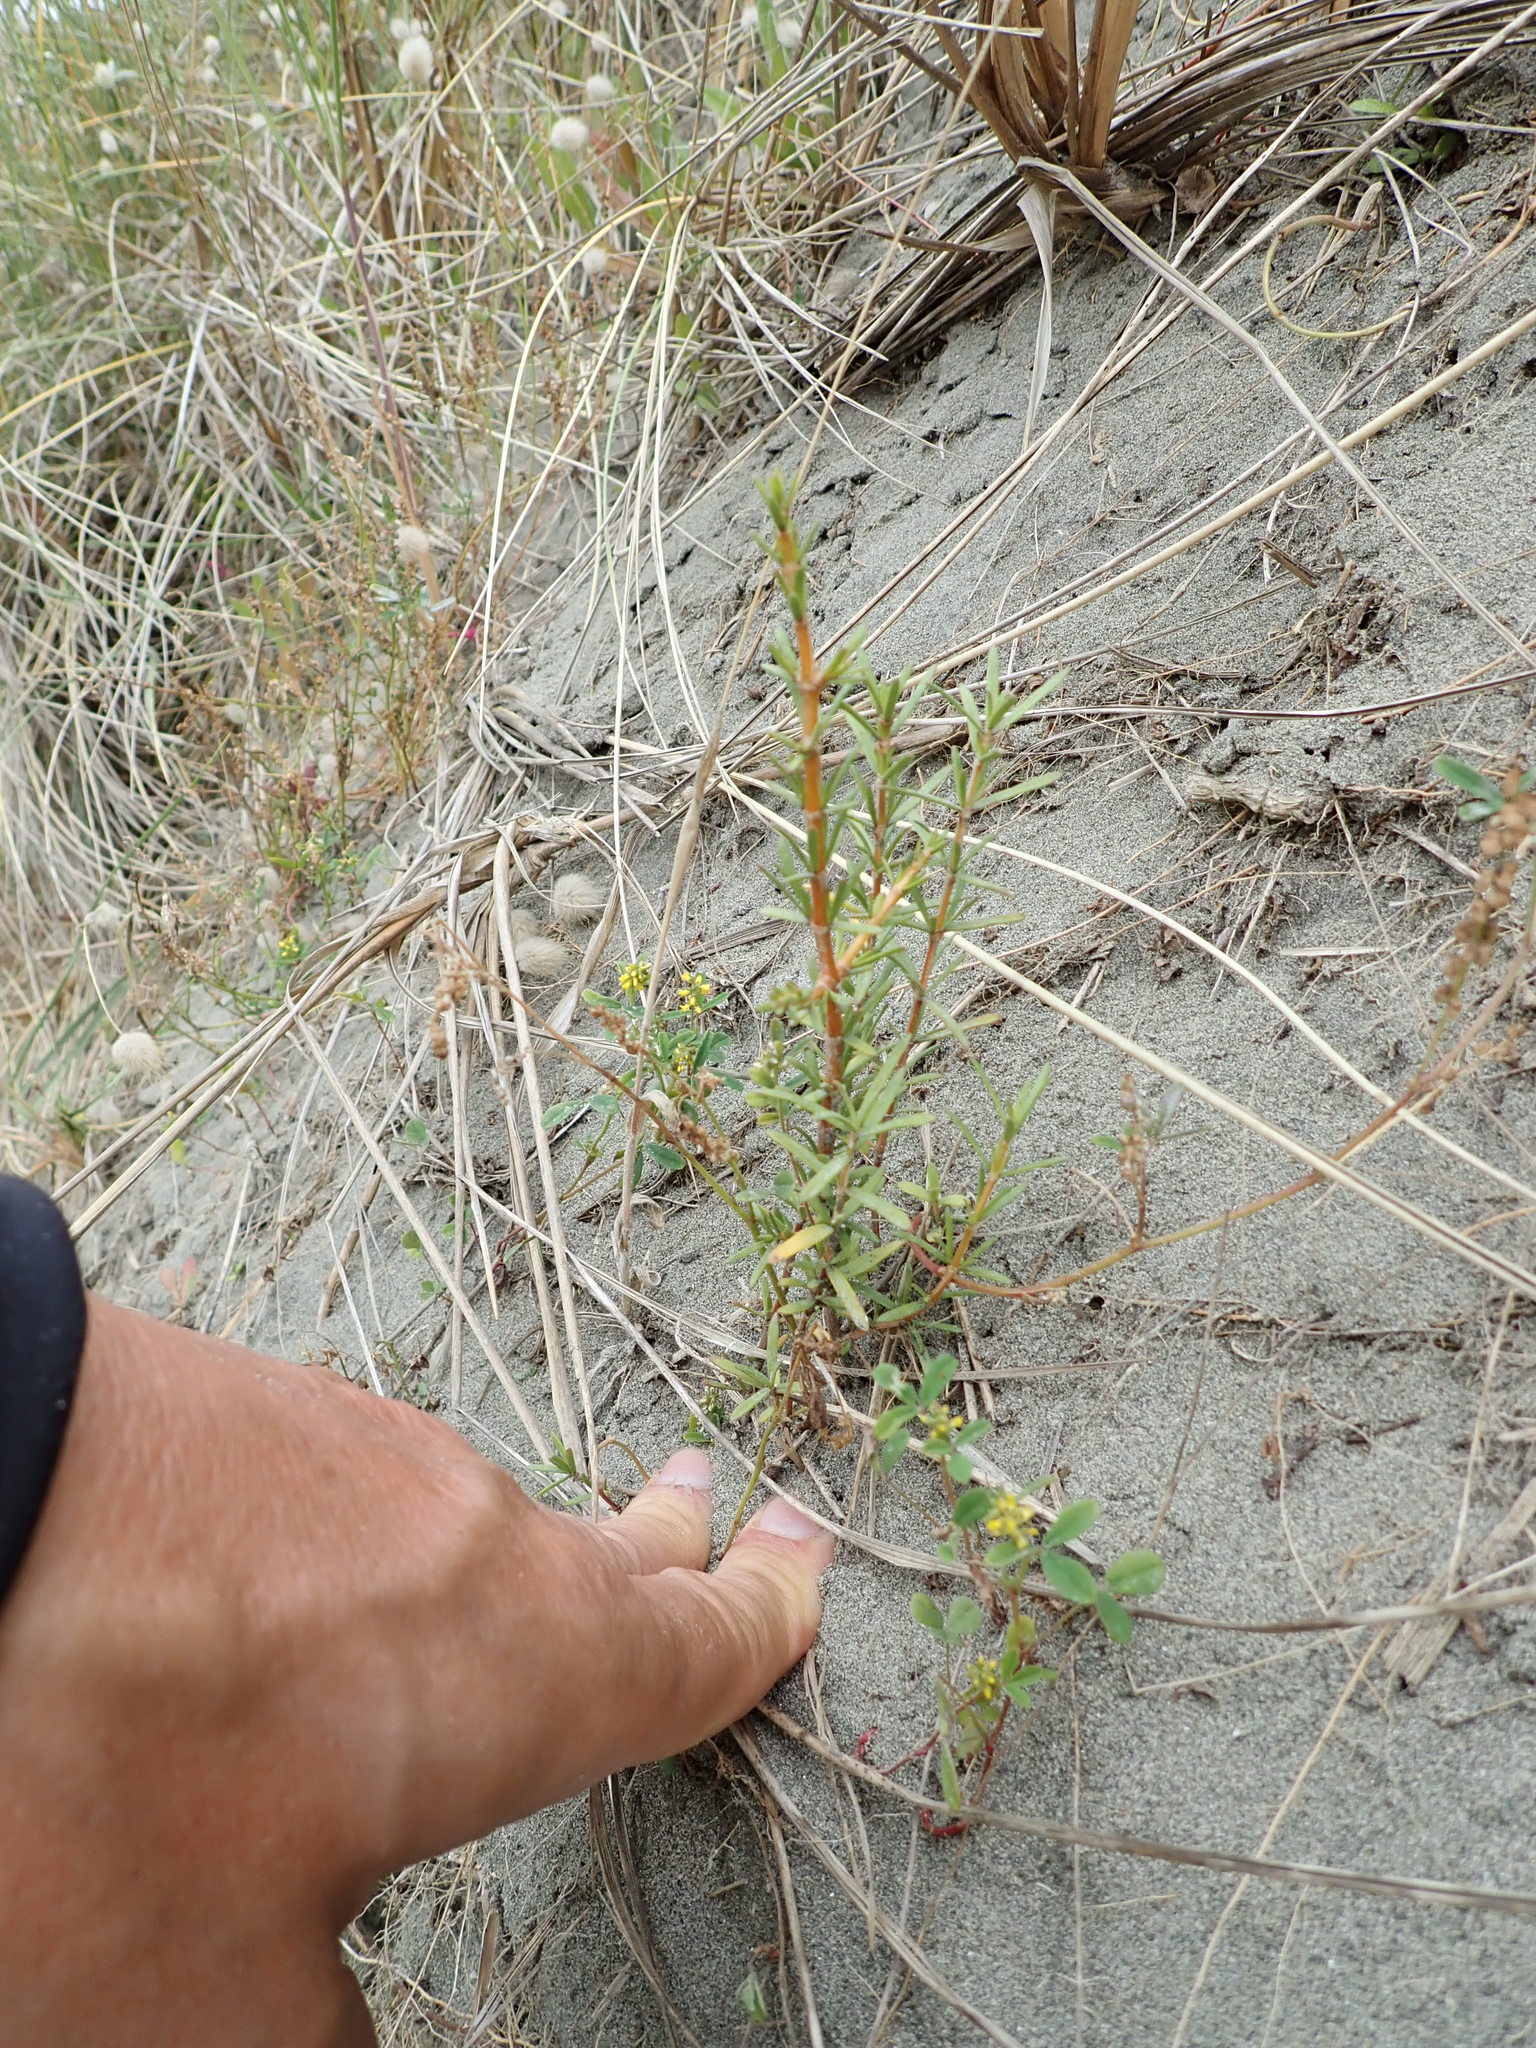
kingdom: Plantae
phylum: Tracheophyta
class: Magnoliopsida
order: Gentianales
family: Rubiaceae
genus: Coprosma
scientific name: Coprosma acerosa
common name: Sand coprosma
